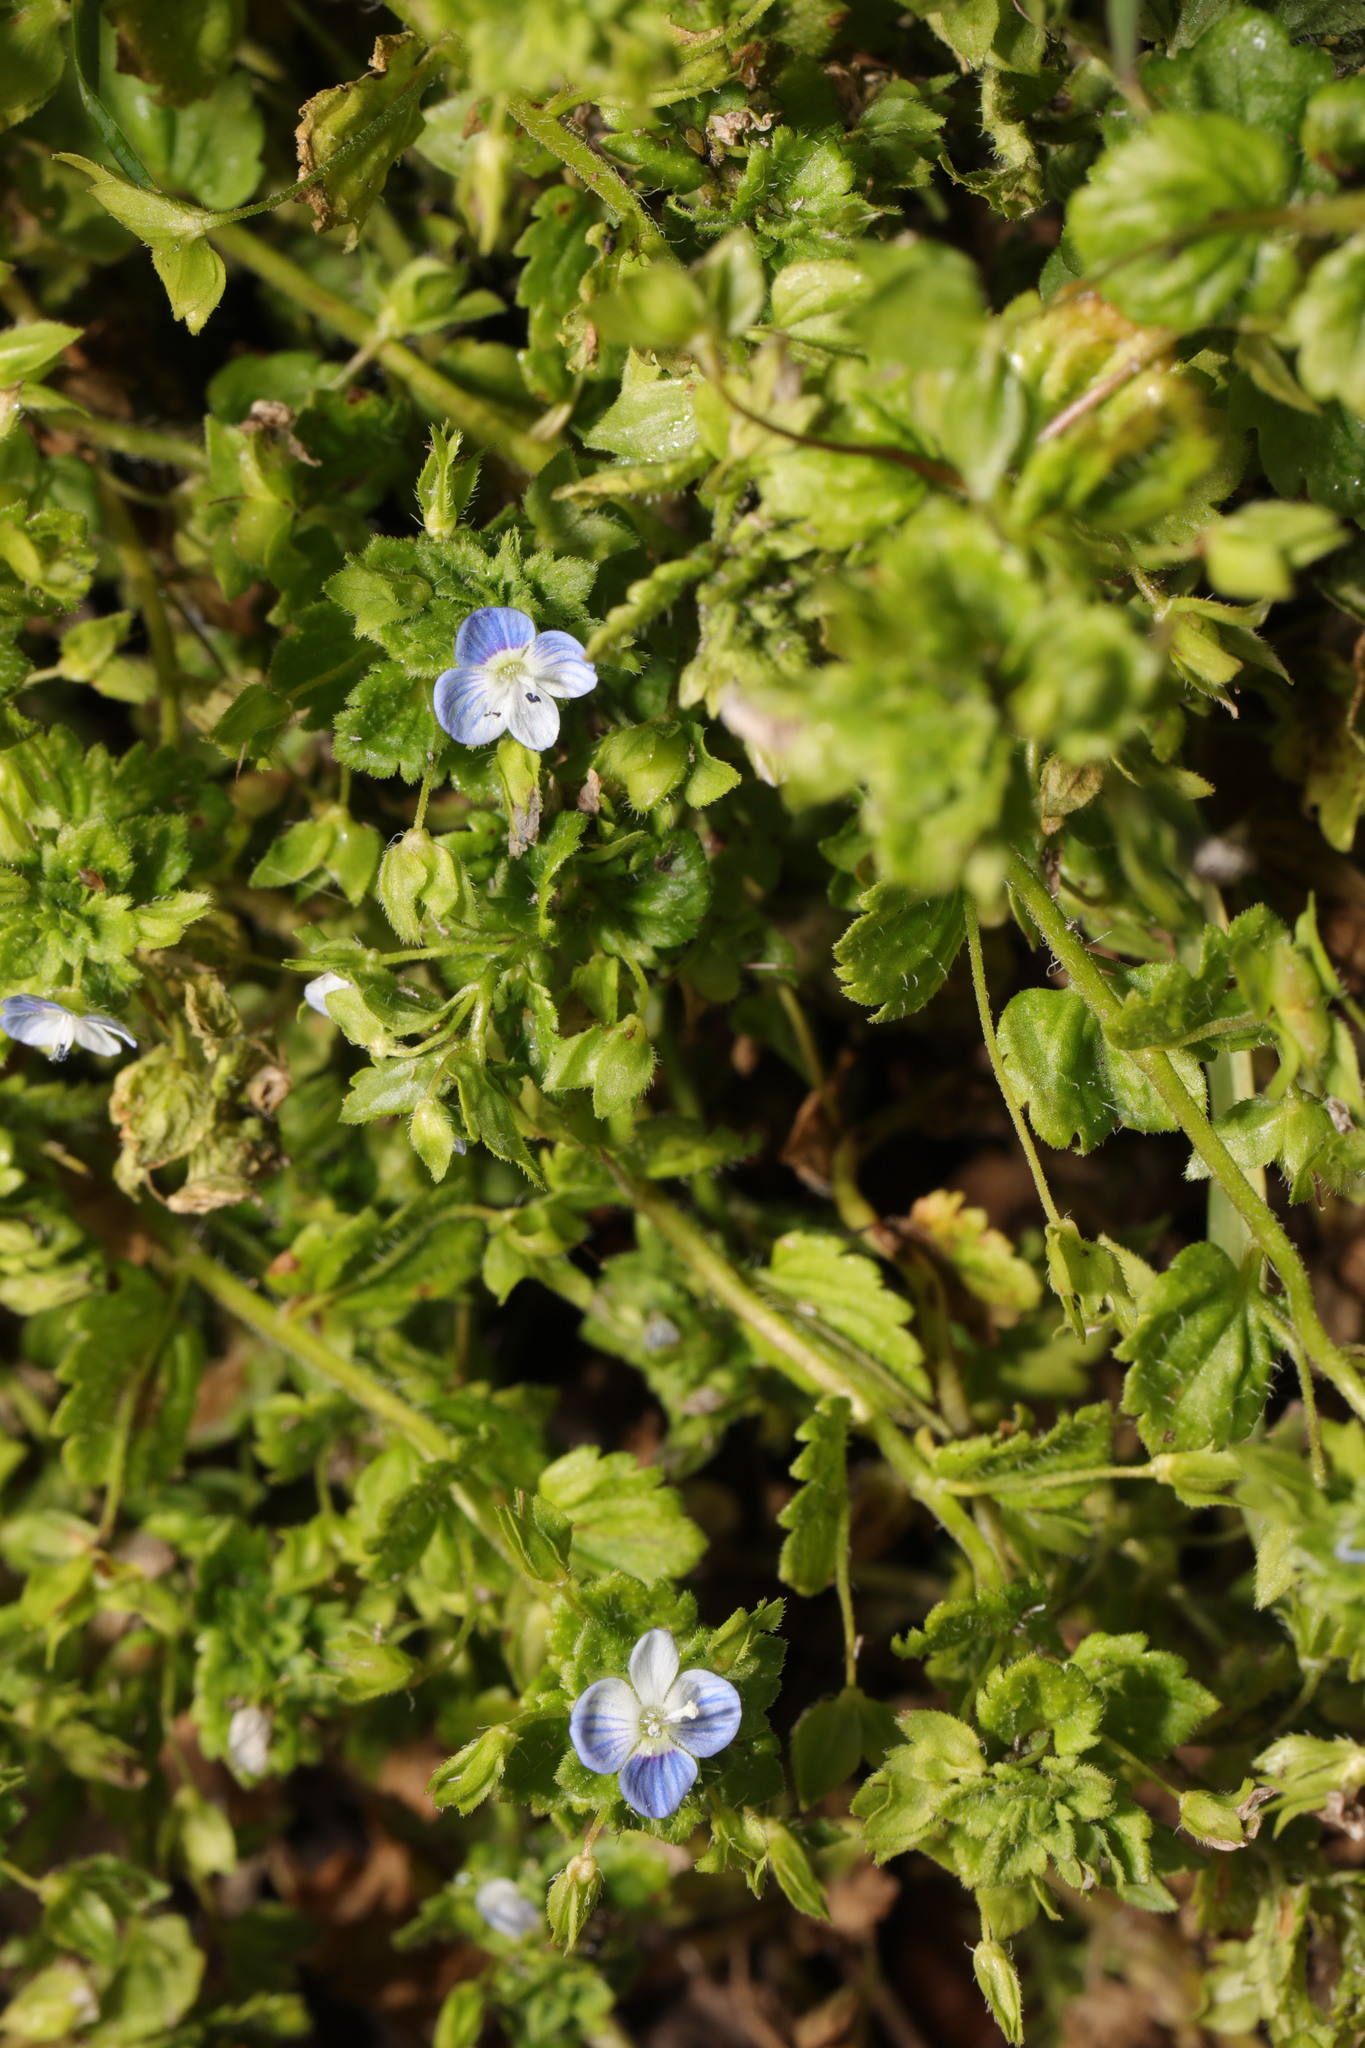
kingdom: Plantae
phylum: Tracheophyta
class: Magnoliopsida
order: Lamiales
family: Plantaginaceae
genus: Veronica
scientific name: Veronica persica
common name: Common field-speedwell
